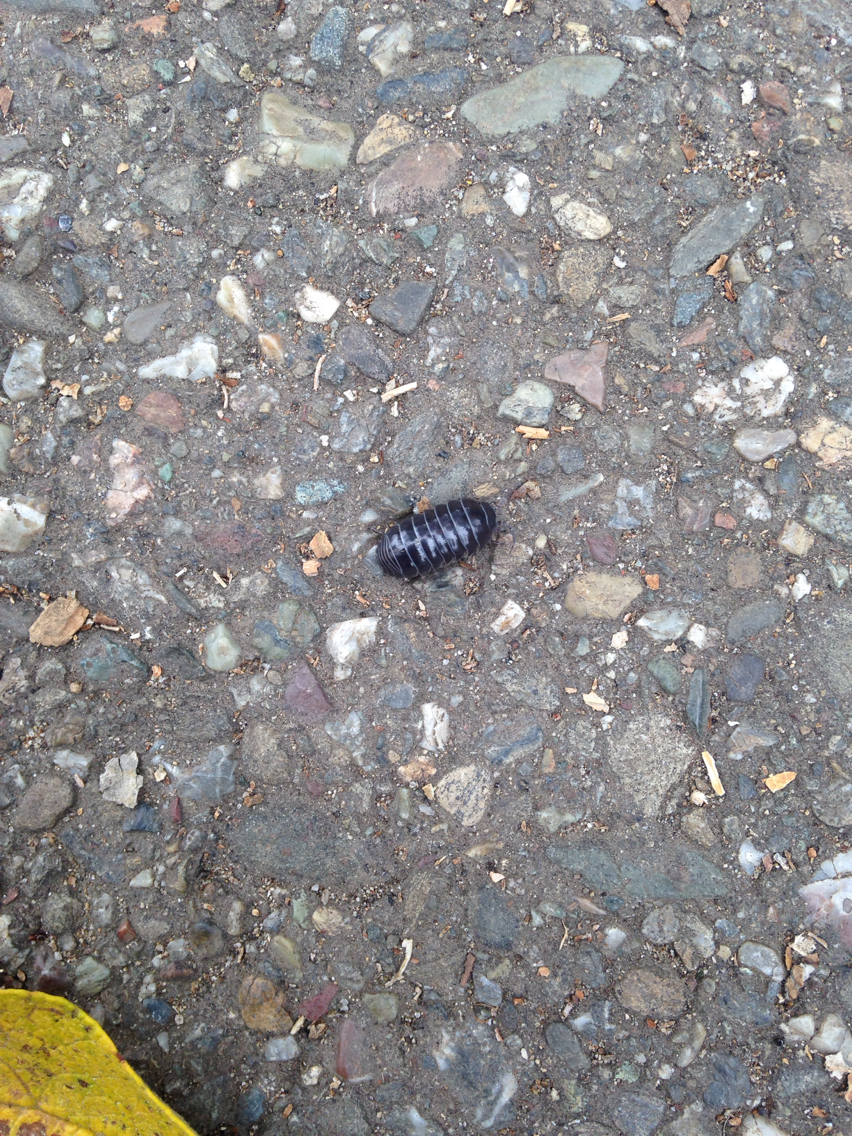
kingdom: Animalia
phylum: Arthropoda
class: Malacostraca
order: Isopoda
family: Armadillidiidae
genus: Armadillidium
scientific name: Armadillidium vulgare
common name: Common pill woodlouse
